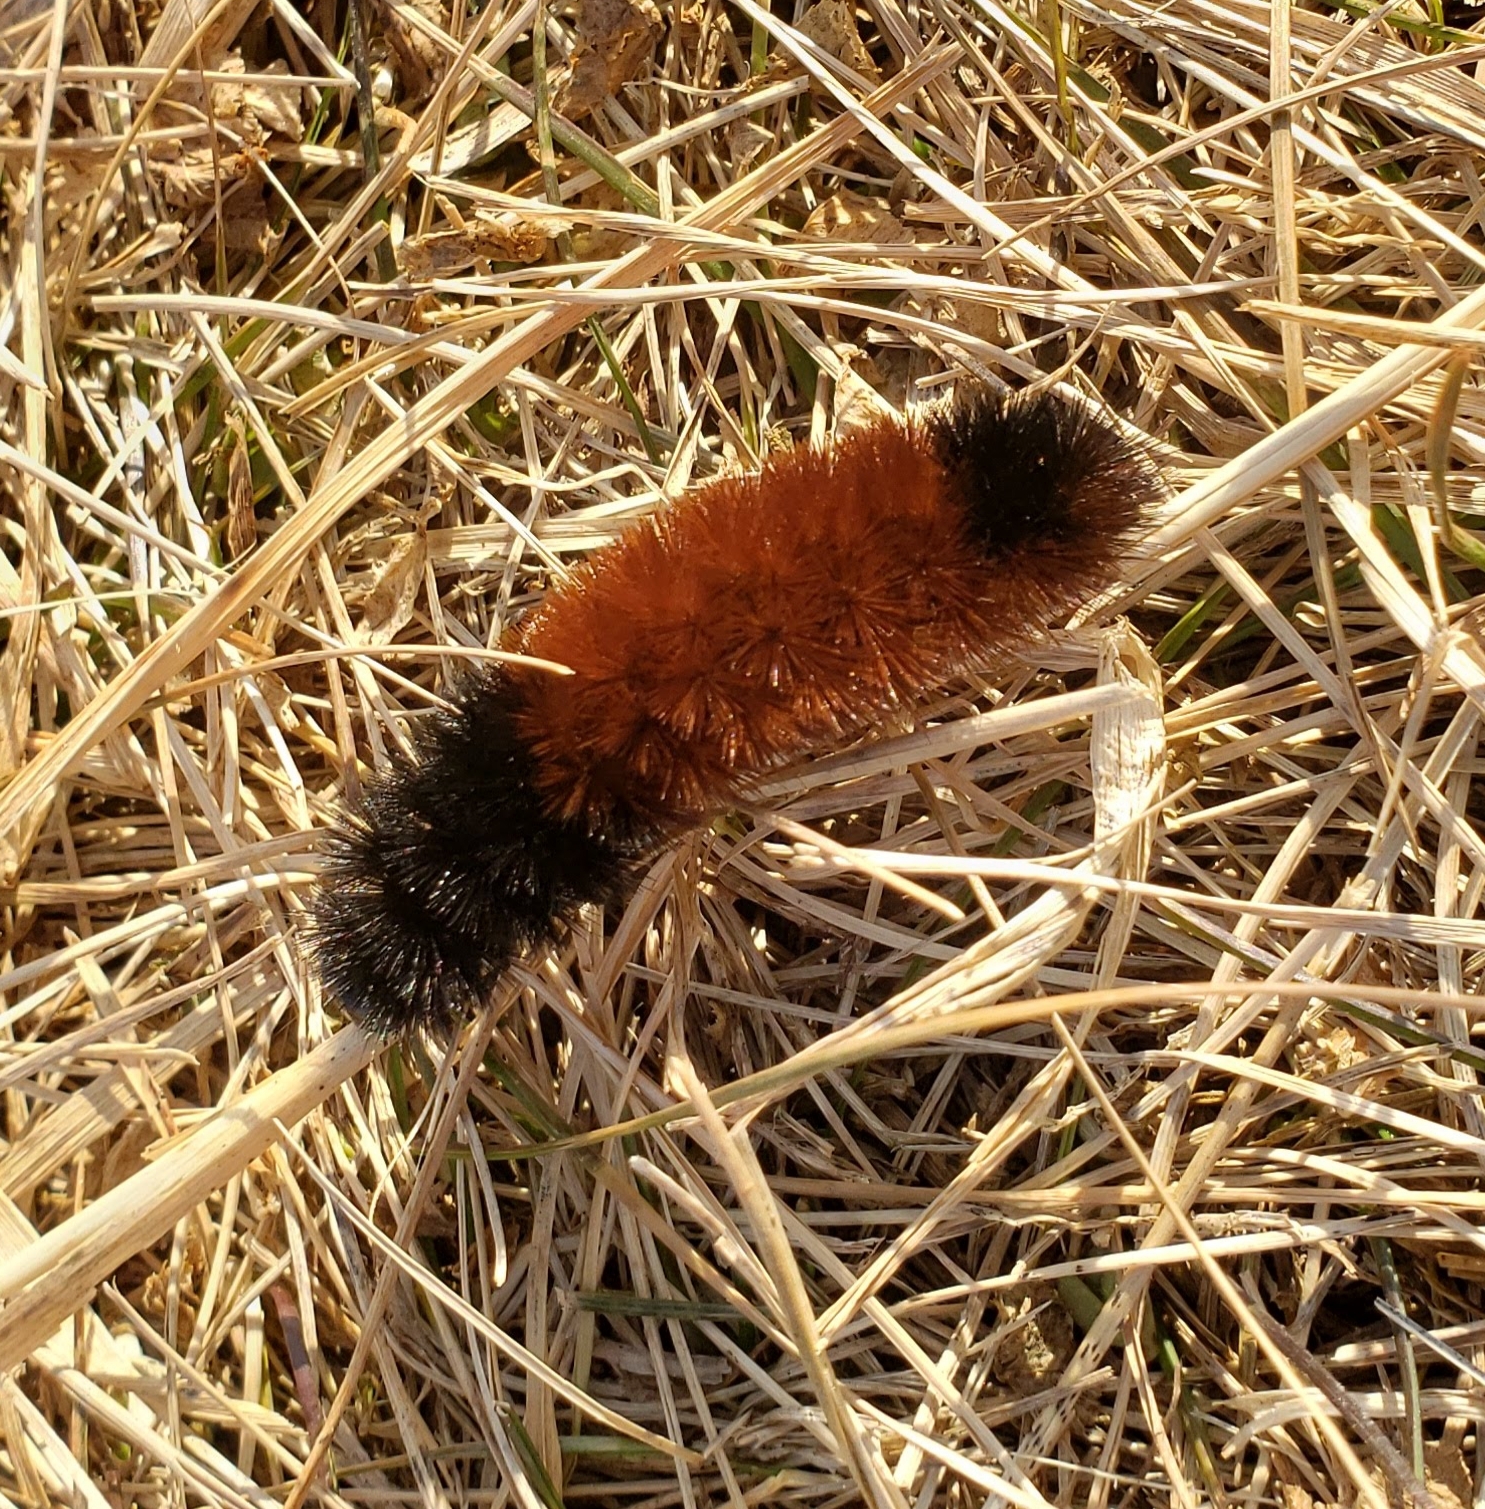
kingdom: Animalia
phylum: Arthropoda
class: Insecta
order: Lepidoptera
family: Erebidae
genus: Pyrrharctia
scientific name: Pyrrharctia isabella
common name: Isabella tiger moth
